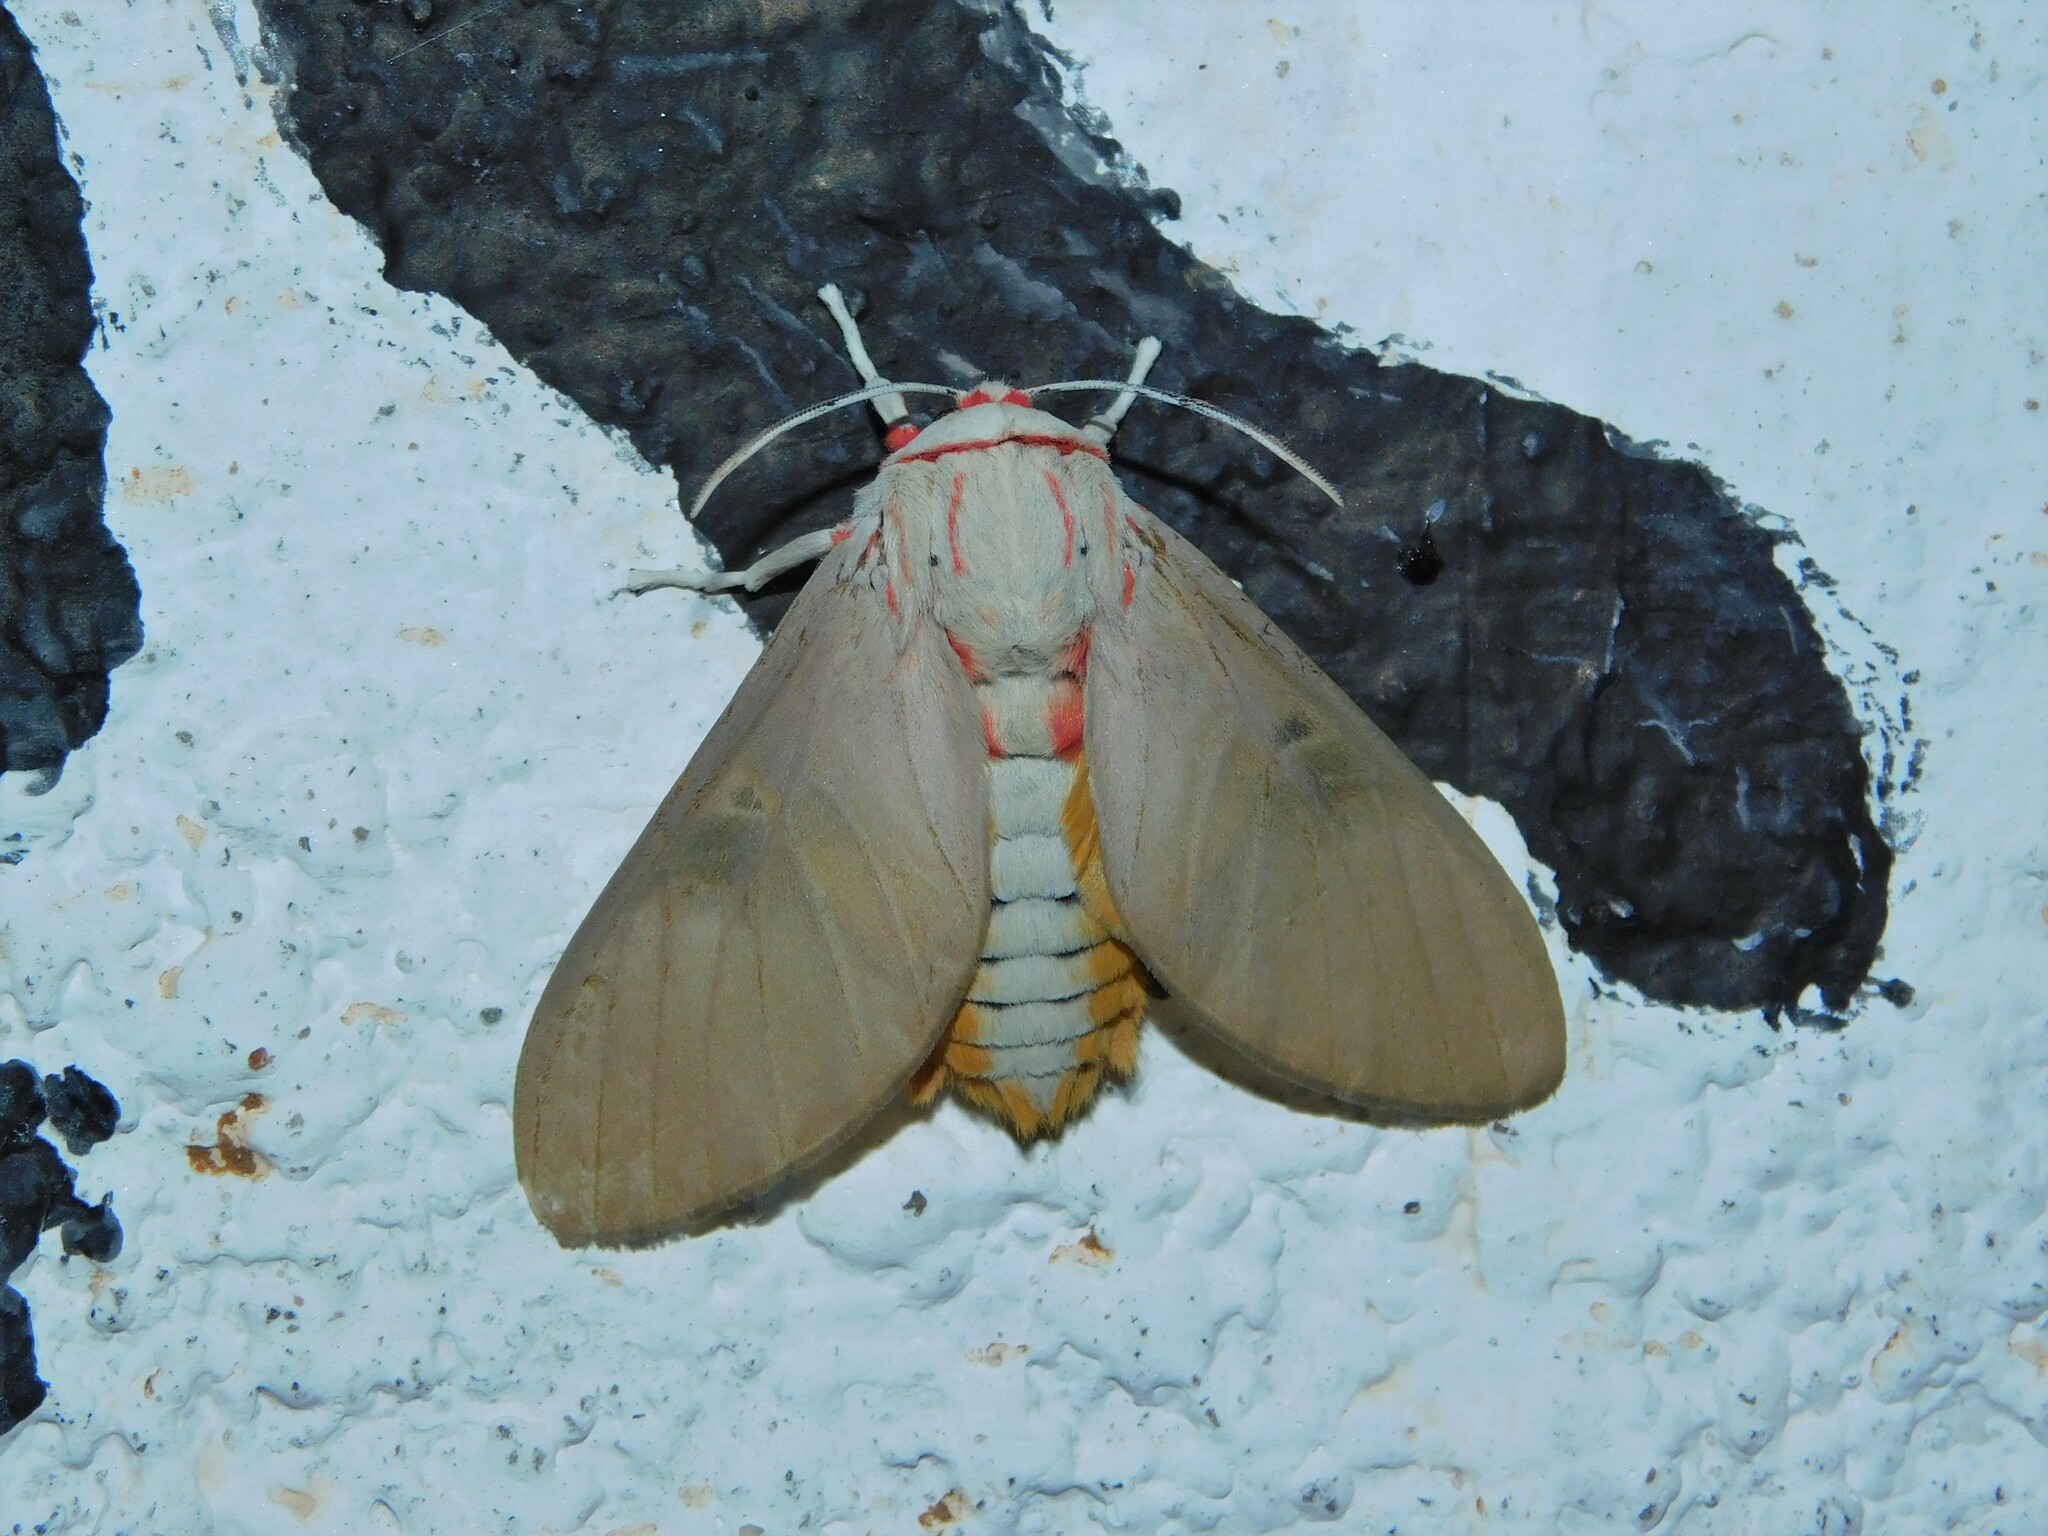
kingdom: Animalia
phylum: Arthropoda
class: Insecta
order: Lepidoptera
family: Erebidae
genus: Balacra
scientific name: Balacra herona
